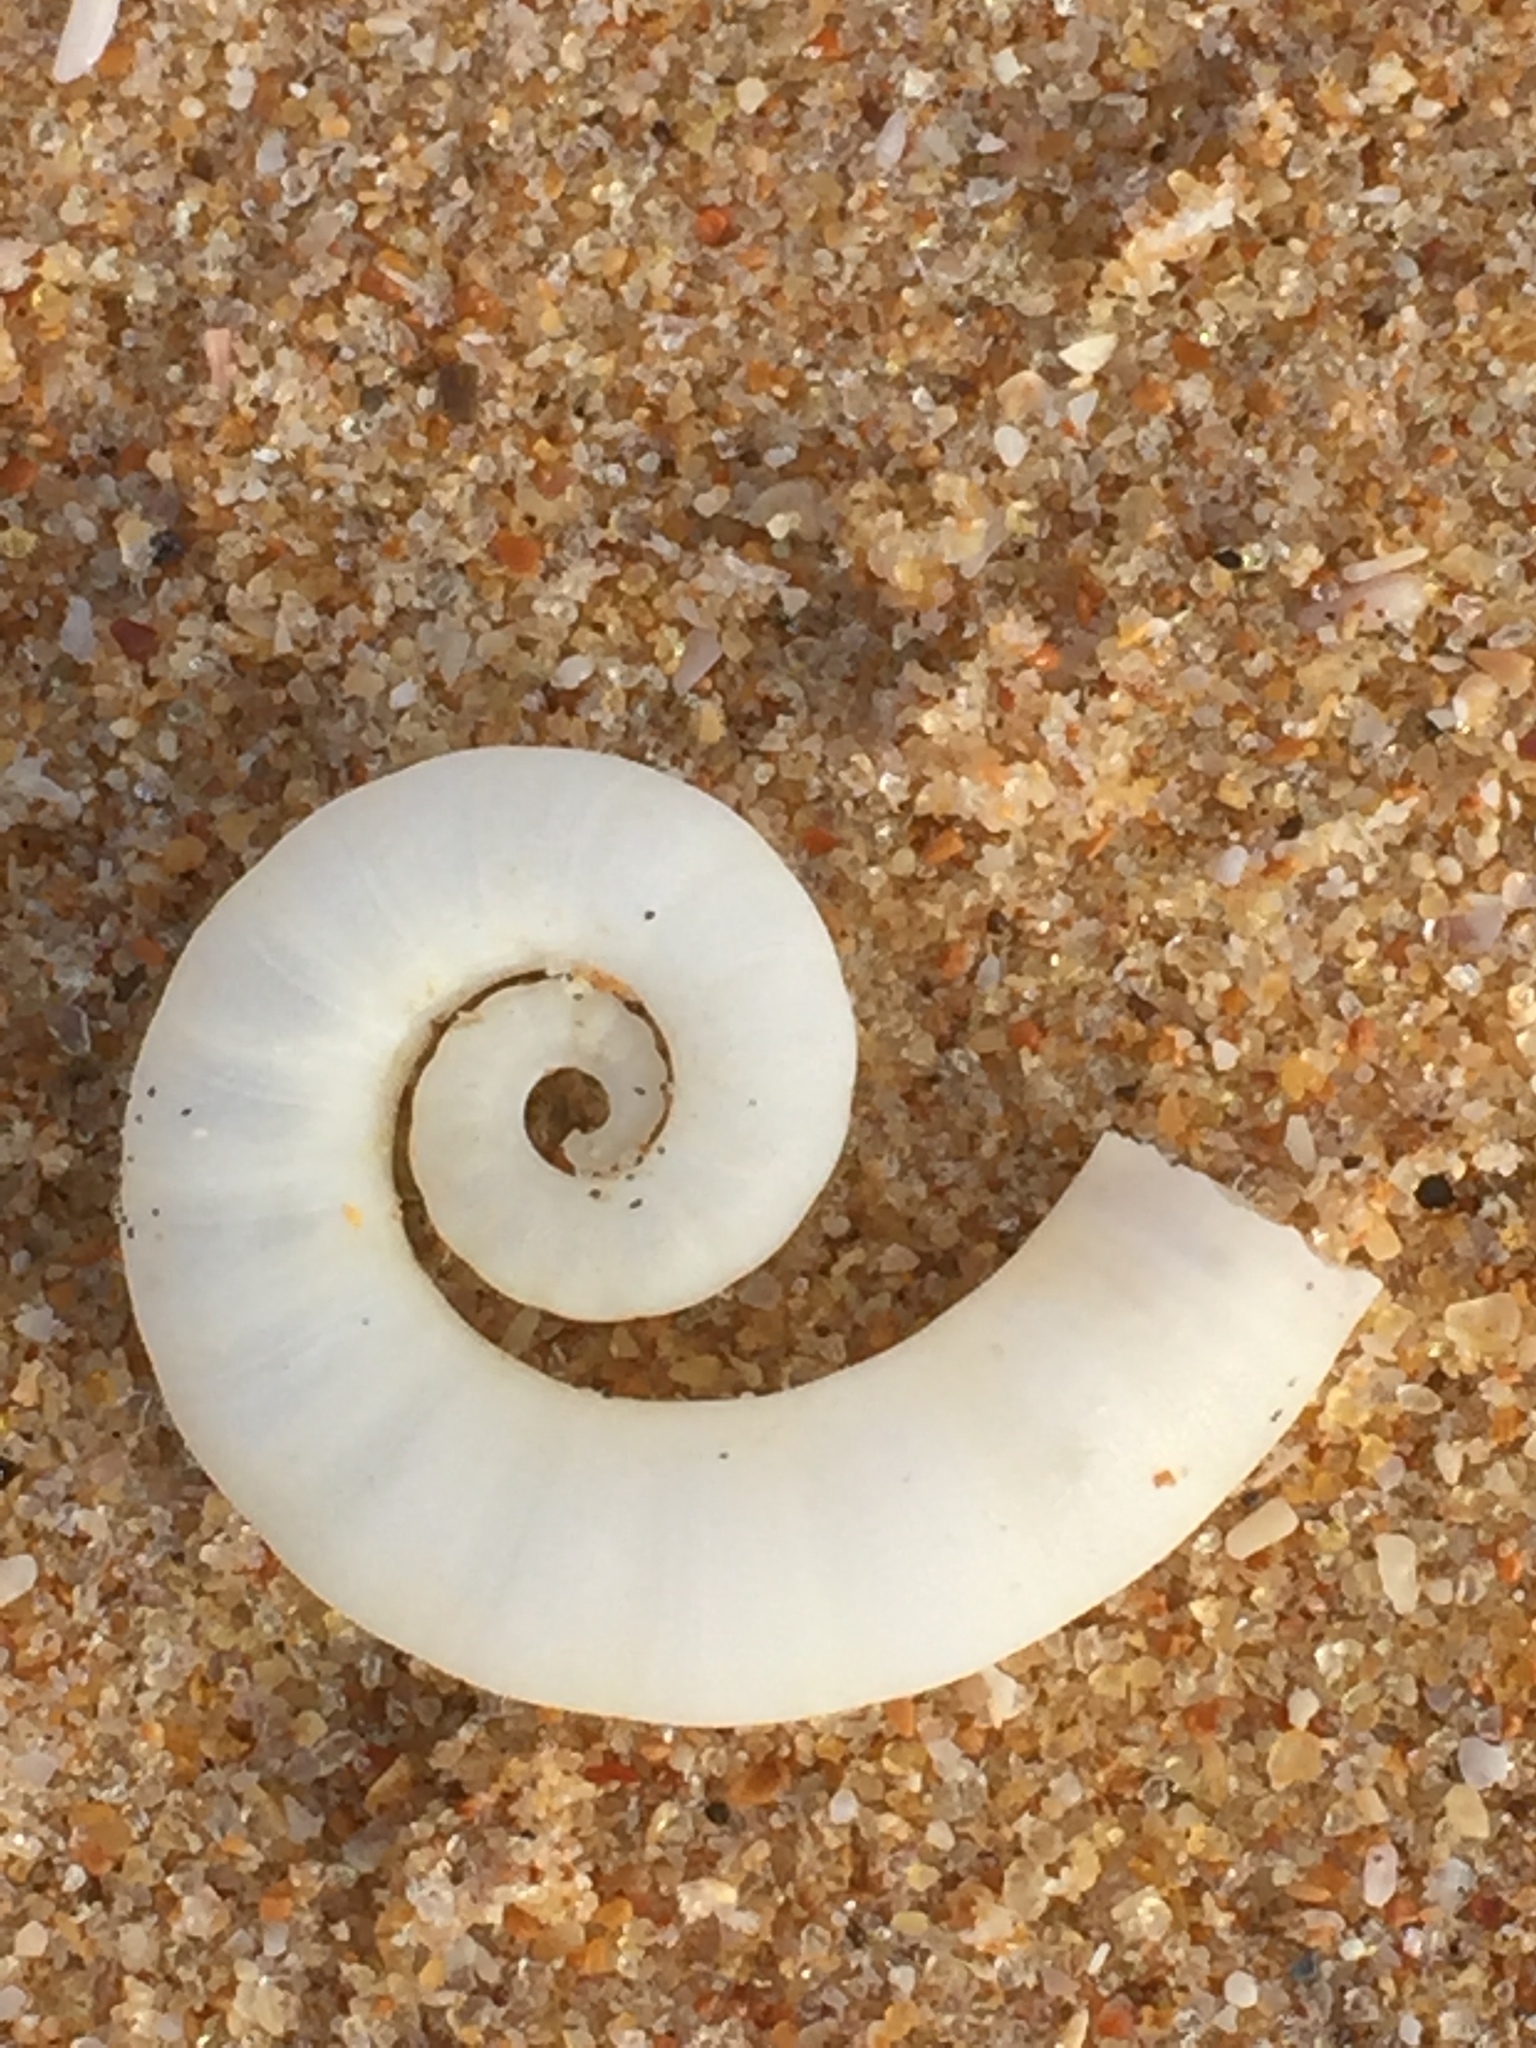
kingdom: Animalia
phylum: Mollusca
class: Cephalopoda
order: Spirulida
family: Spirulidae
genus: Spirula
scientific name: Spirula spirula
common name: Ram's horn squid
